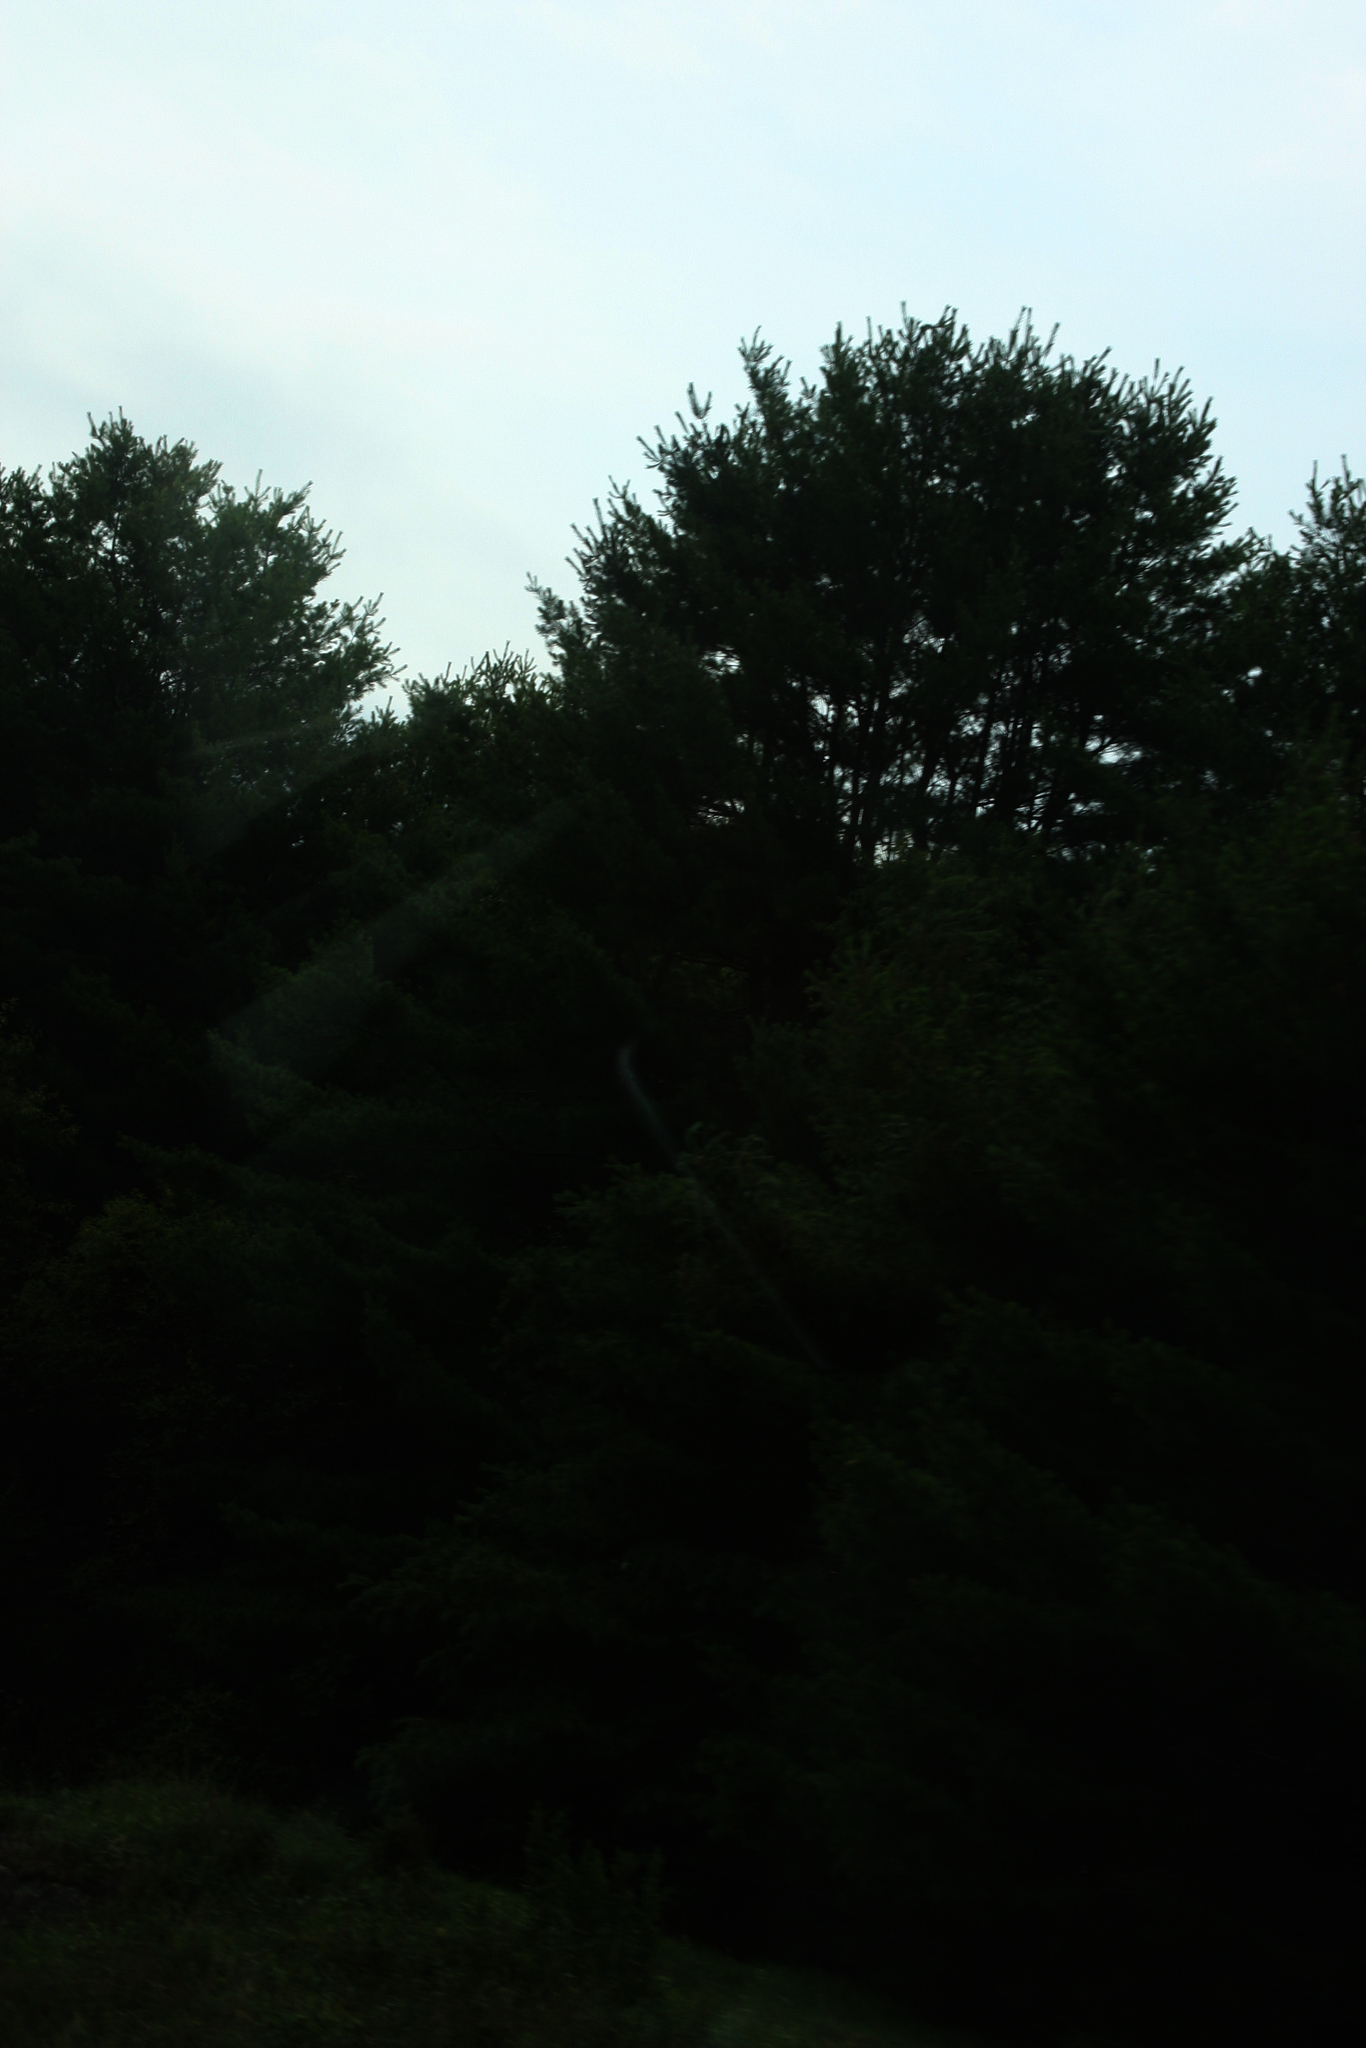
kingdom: Plantae
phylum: Tracheophyta
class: Pinopsida
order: Pinales
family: Pinaceae
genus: Pinus
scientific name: Pinus strobus
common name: Weymouth pine
